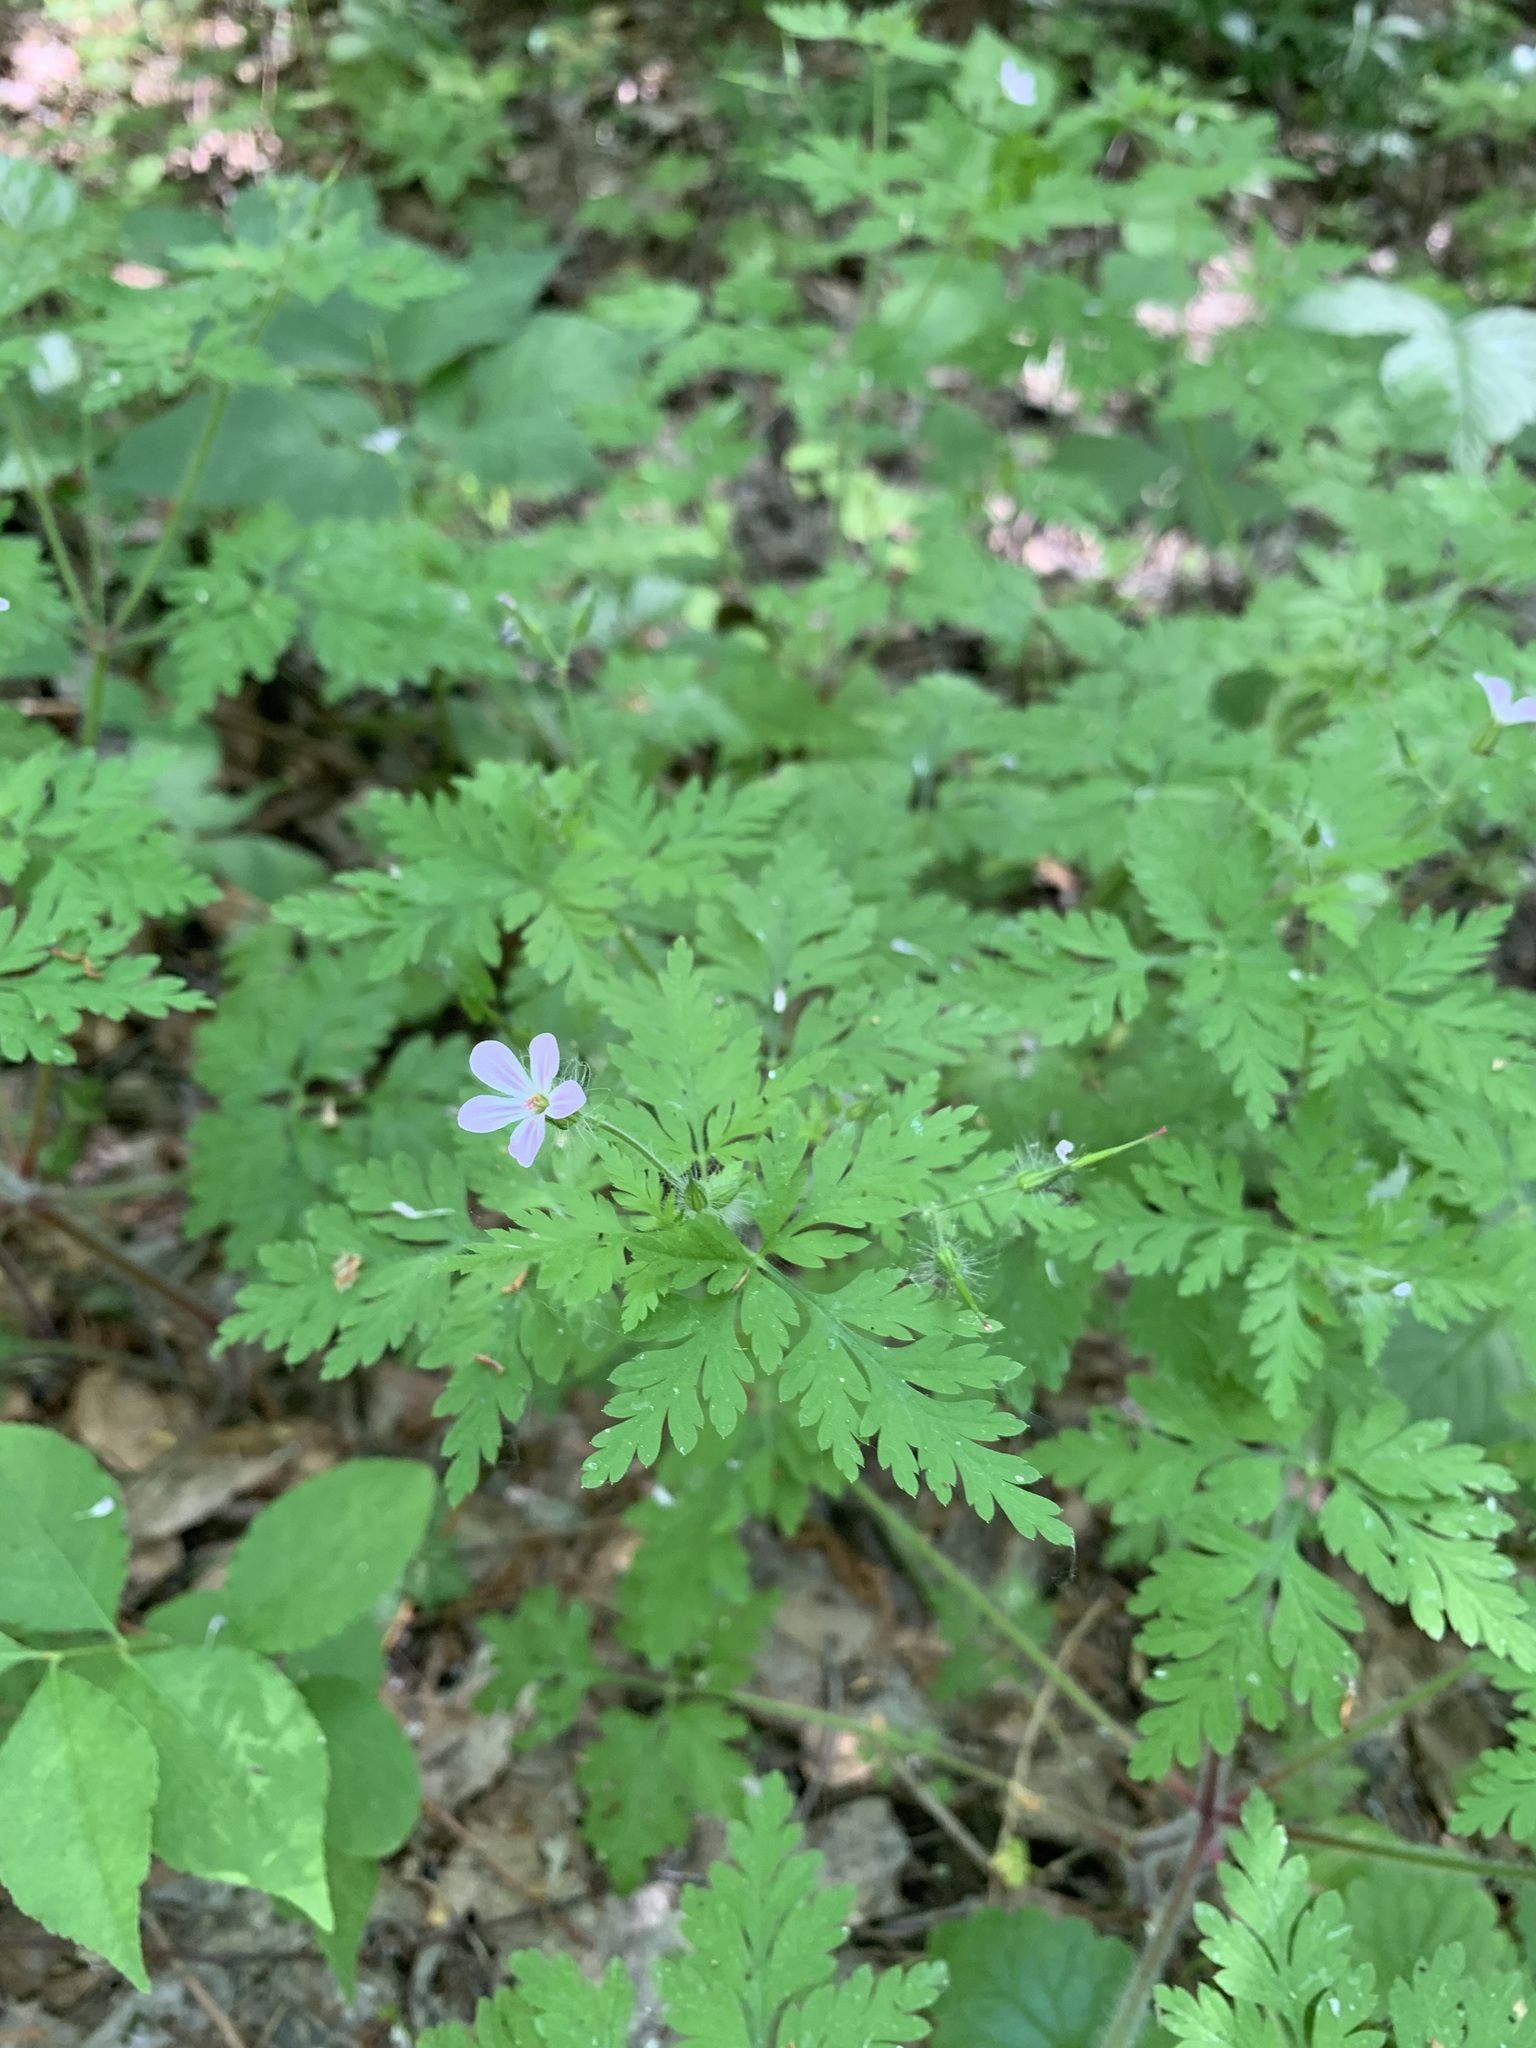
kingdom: Plantae
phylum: Tracheophyta
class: Magnoliopsida
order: Geraniales
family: Geraniaceae
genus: Geranium
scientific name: Geranium robertianum
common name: Herb-robert
